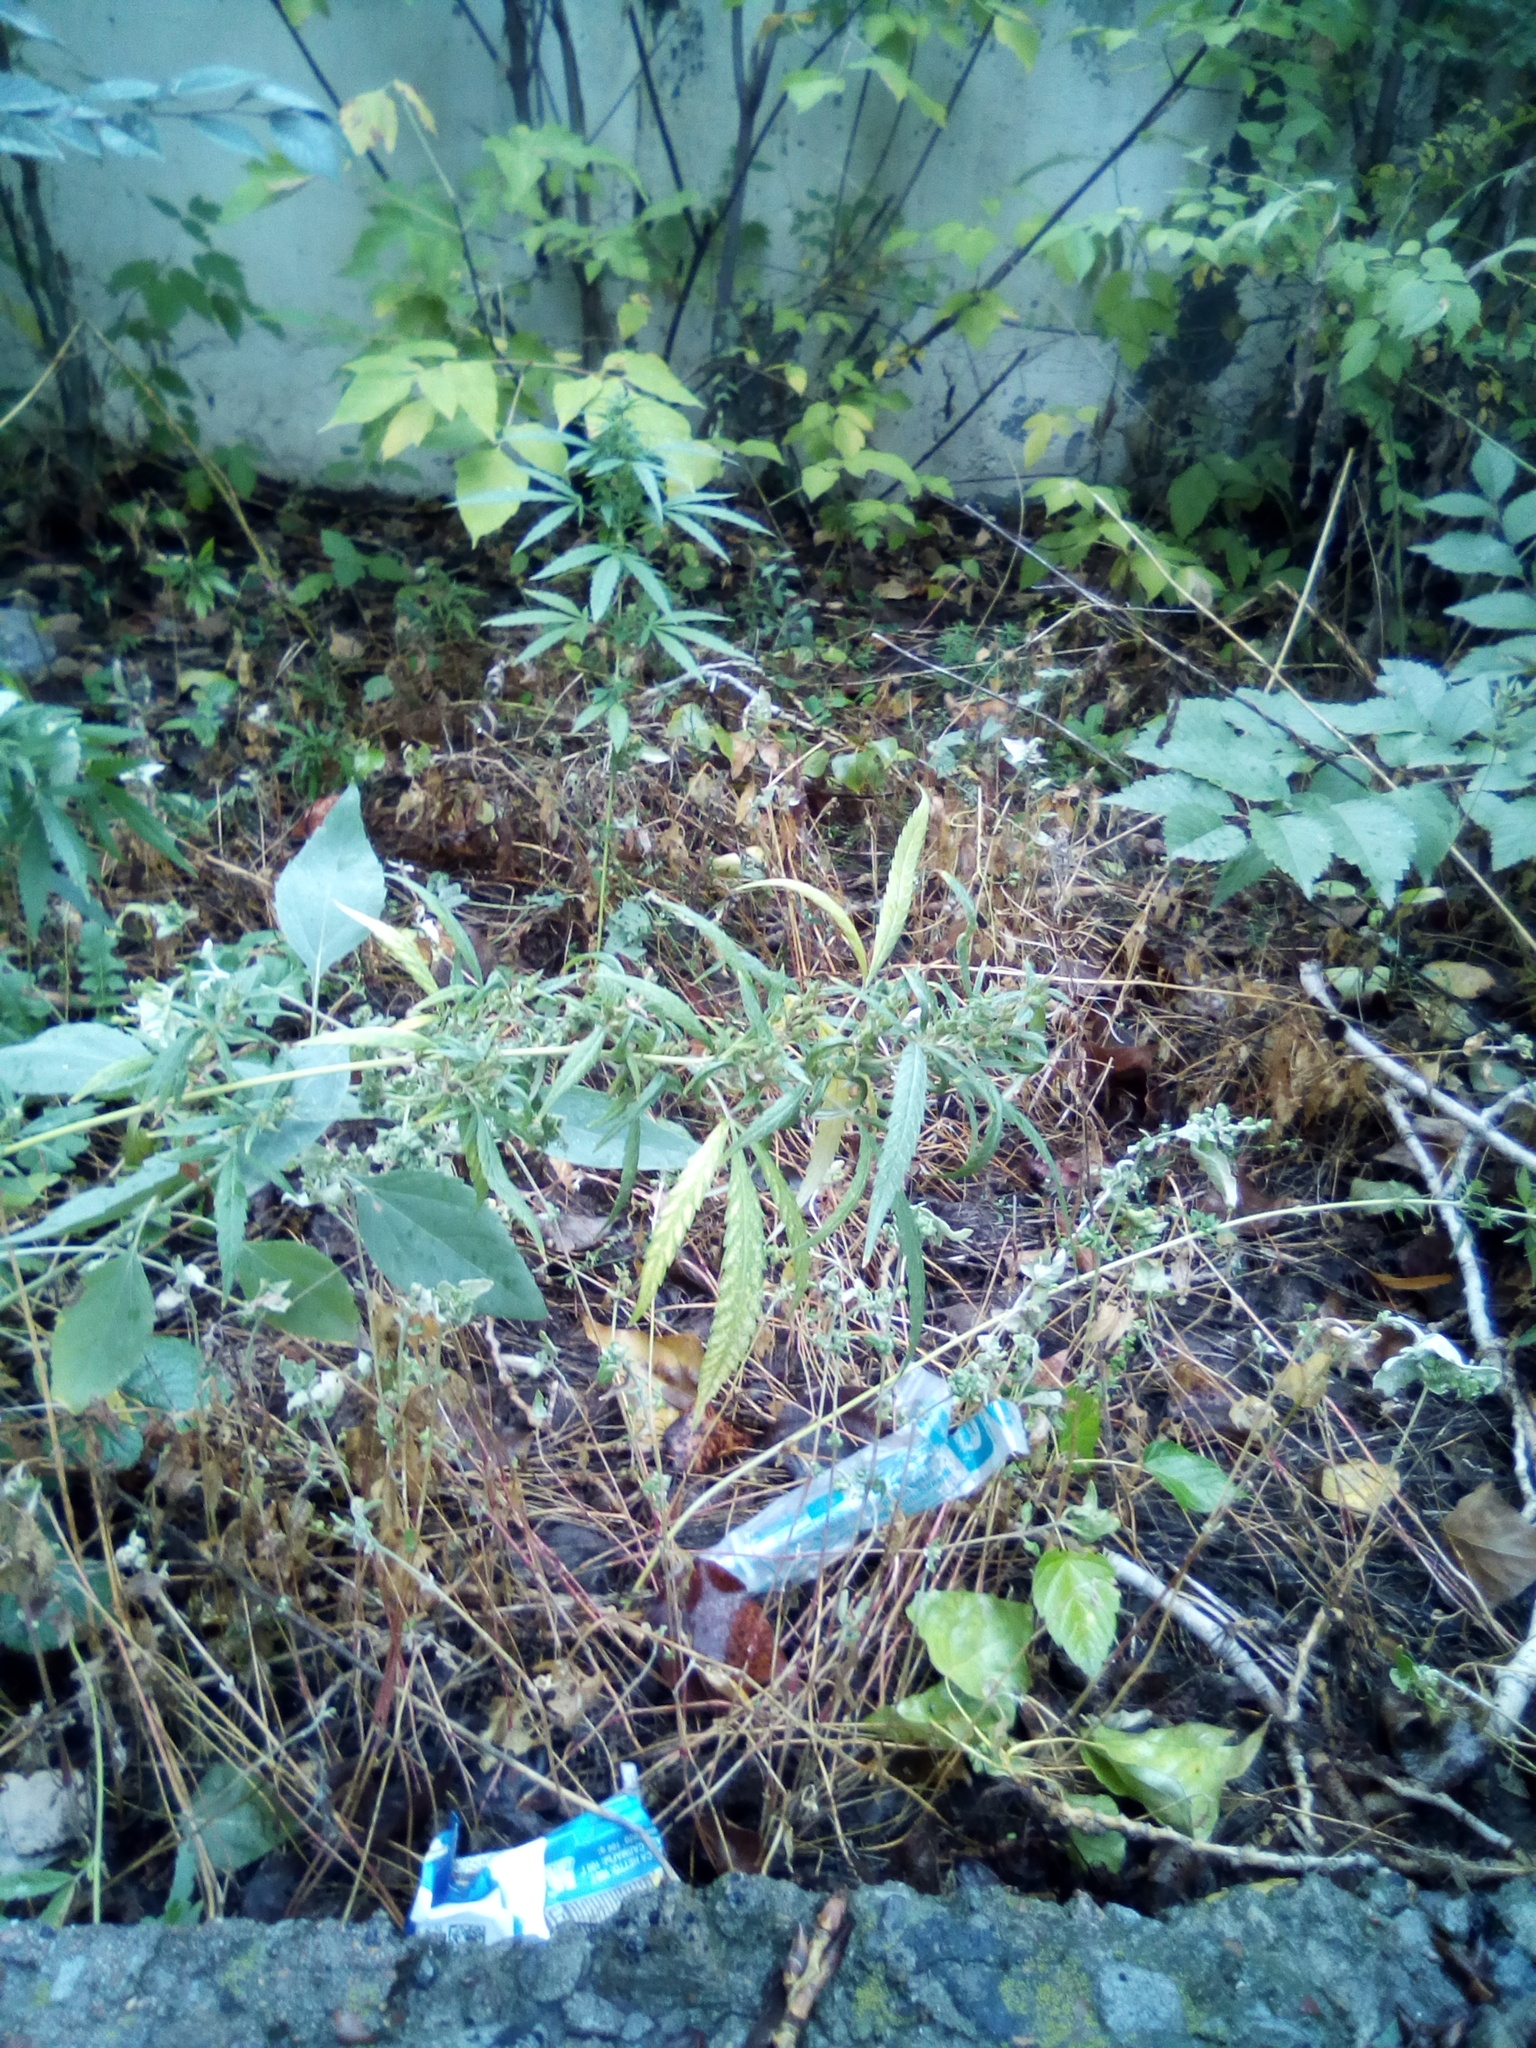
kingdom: Plantae
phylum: Tracheophyta
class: Magnoliopsida
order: Rosales
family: Cannabaceae
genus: Cannabis
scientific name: Cannabis sativa
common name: Hemp
